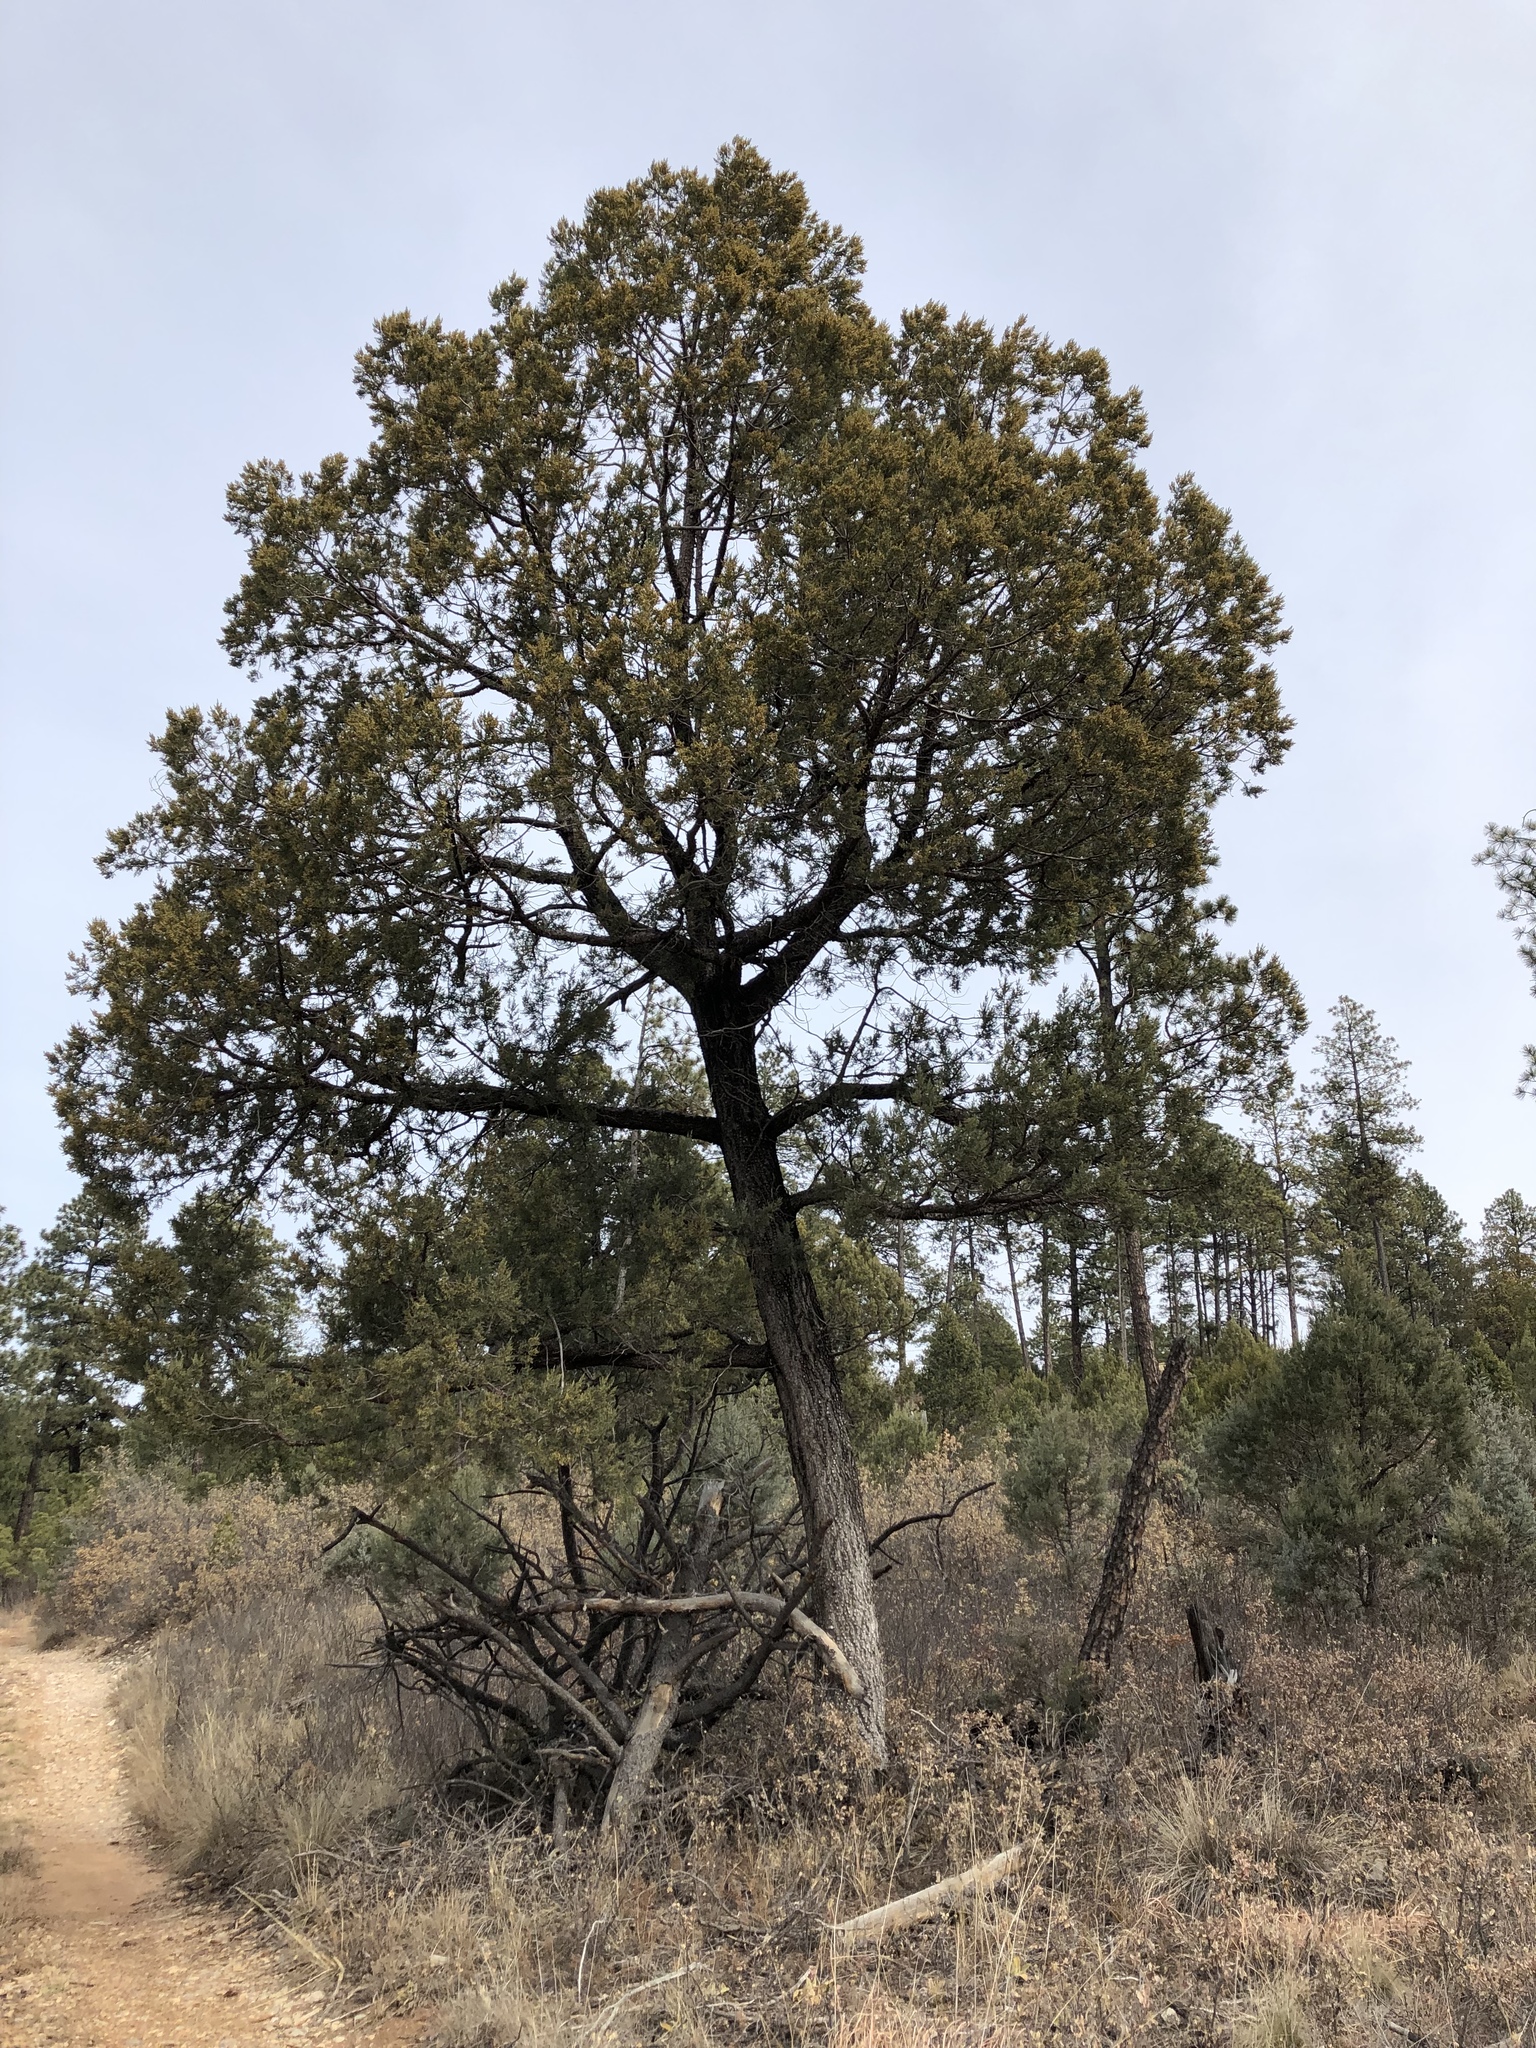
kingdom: Plantae
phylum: Tracheophyta
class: Pinopsida
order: Pinales
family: Cupressaceae
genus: Juniperus
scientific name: Juniperus deppeana
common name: Alligator juniper
